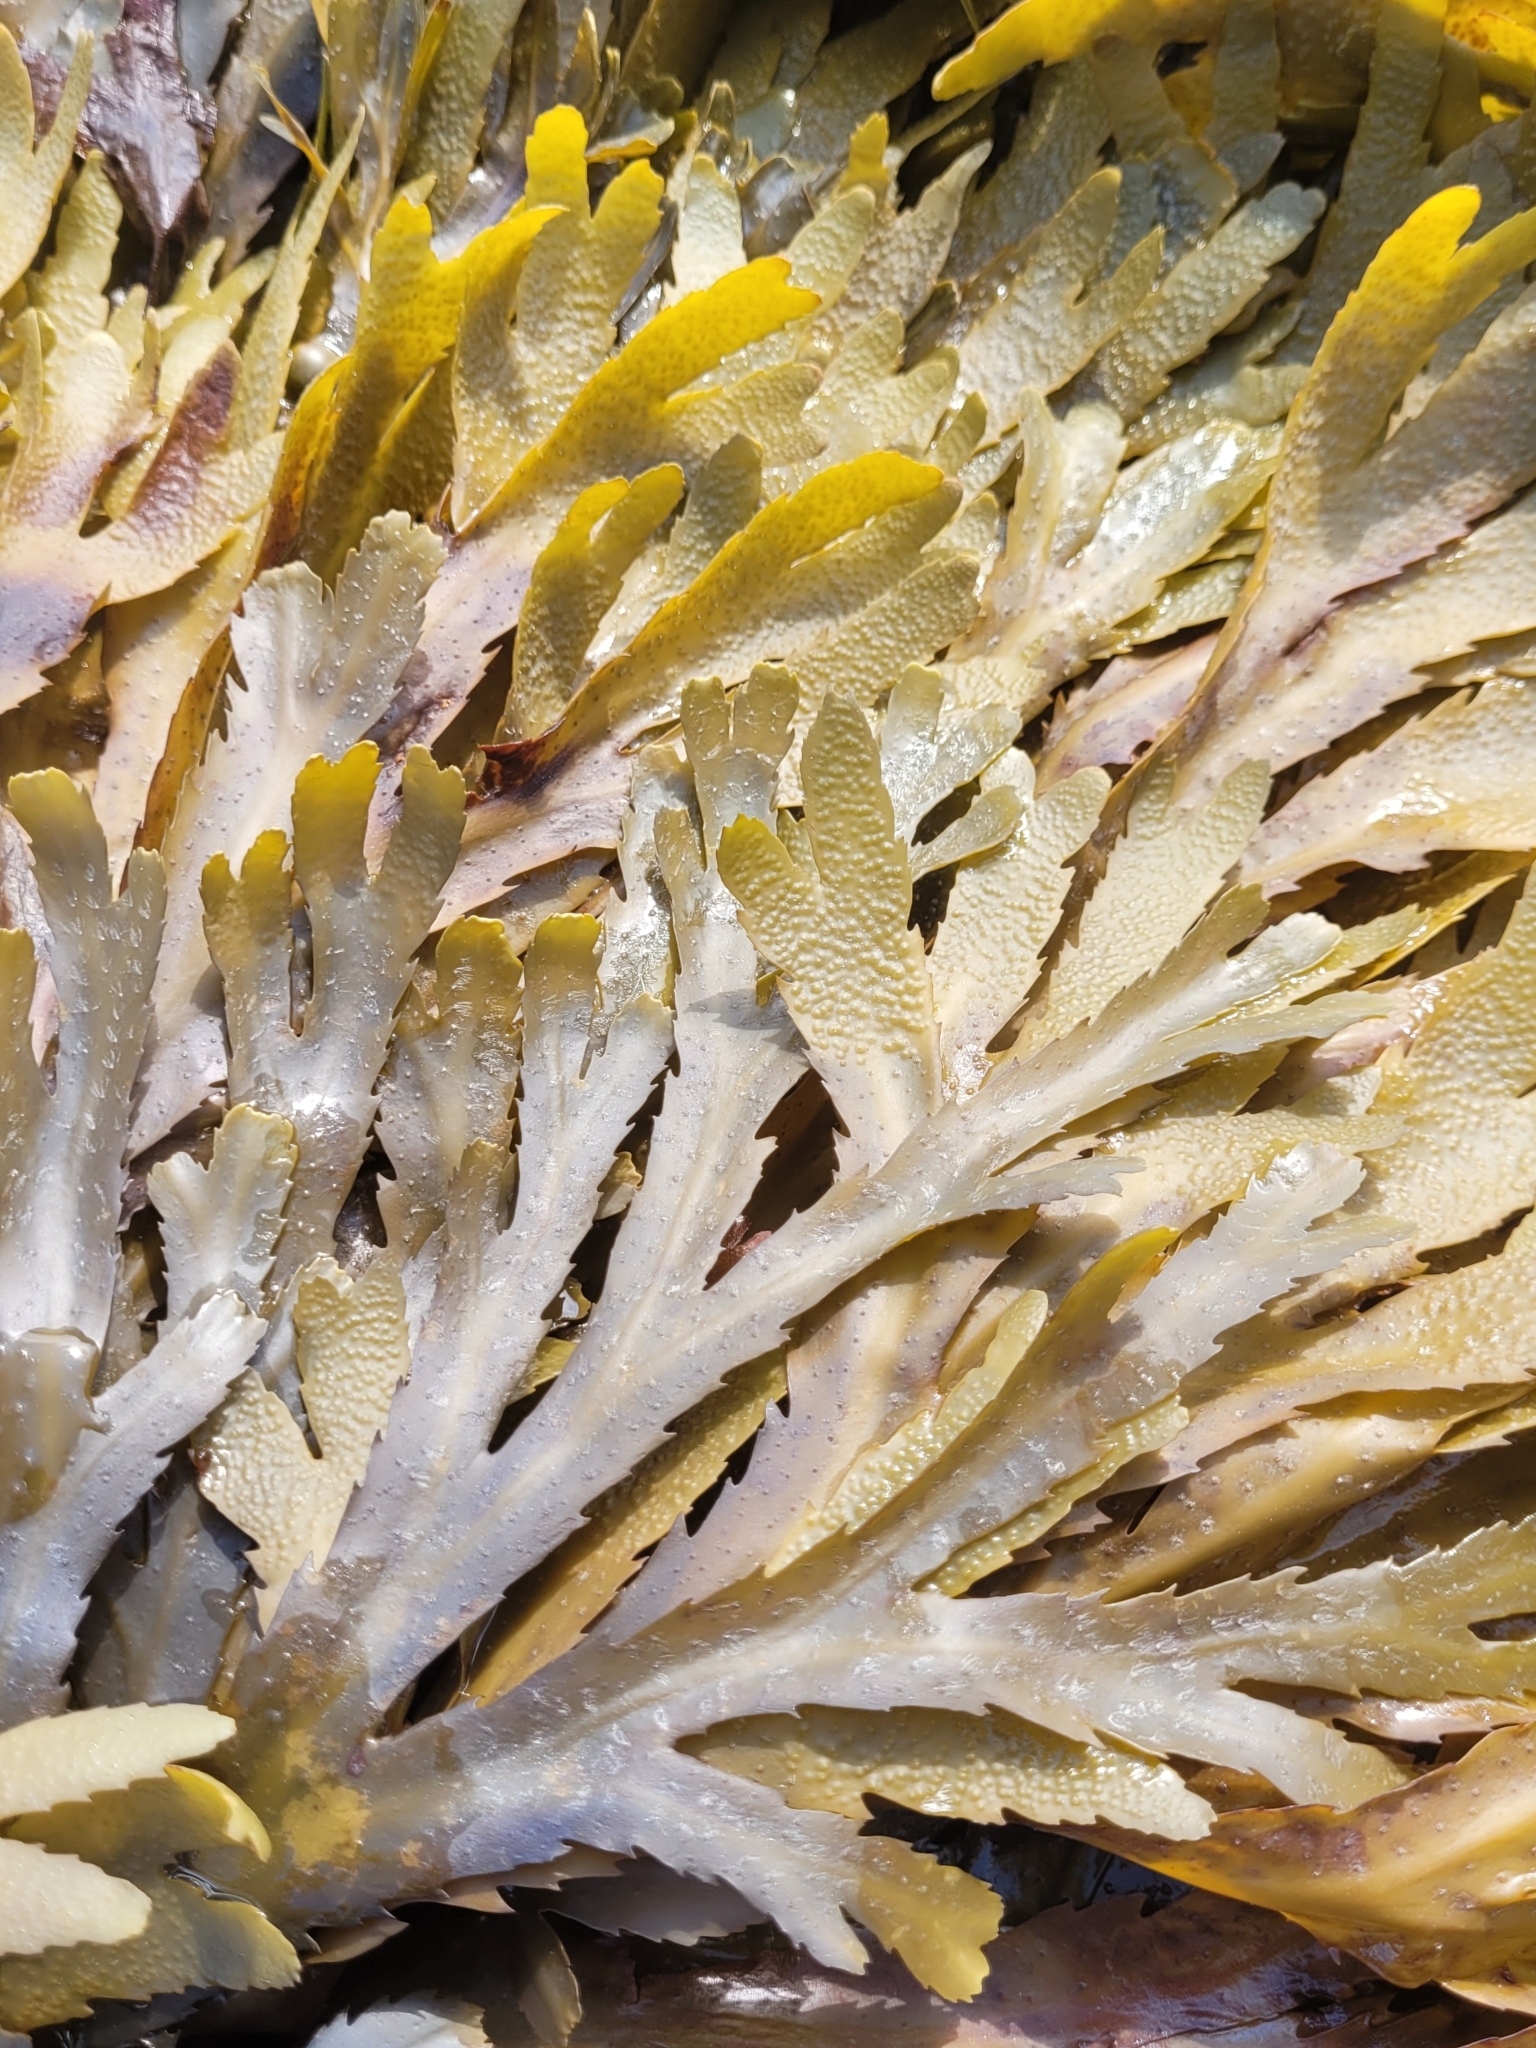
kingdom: Chromista
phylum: Ochrophyta
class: Phaeophyceae
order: Fucales
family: Fucaceae
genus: Fucus
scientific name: Fucus serratus
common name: Toothed wrack
